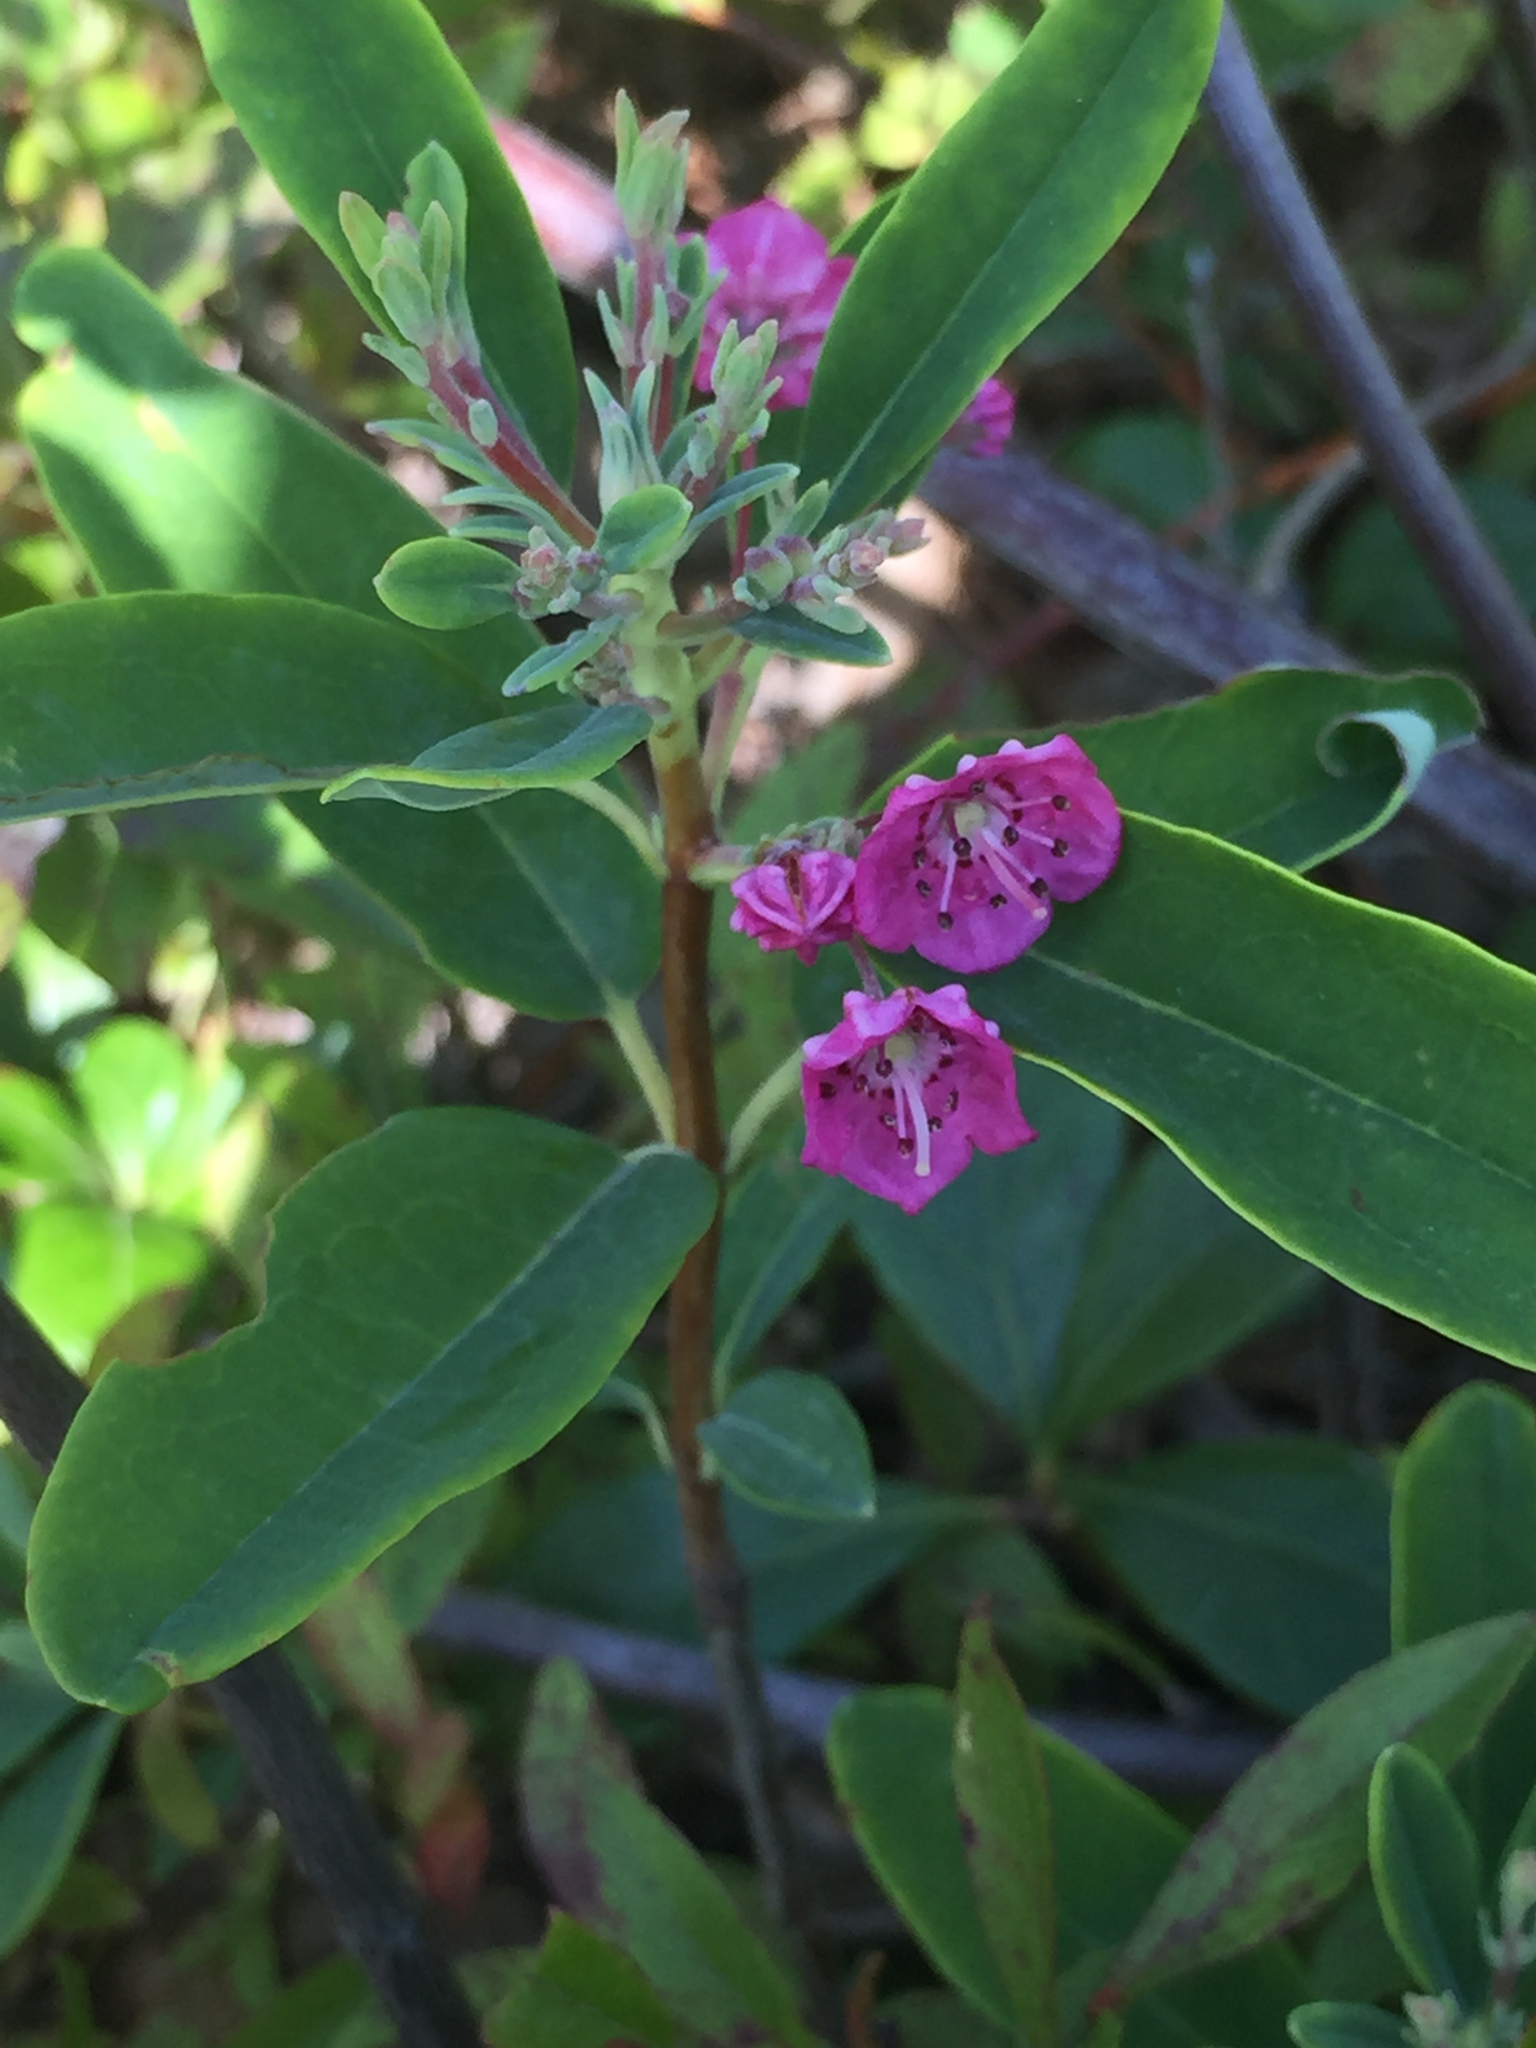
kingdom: Plantae
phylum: Tracheophyta
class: Magnoliopsida
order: Ericales
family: Ericaceae
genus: Kalmia
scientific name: Kalmia angustifolia
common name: Sheep-laurel
